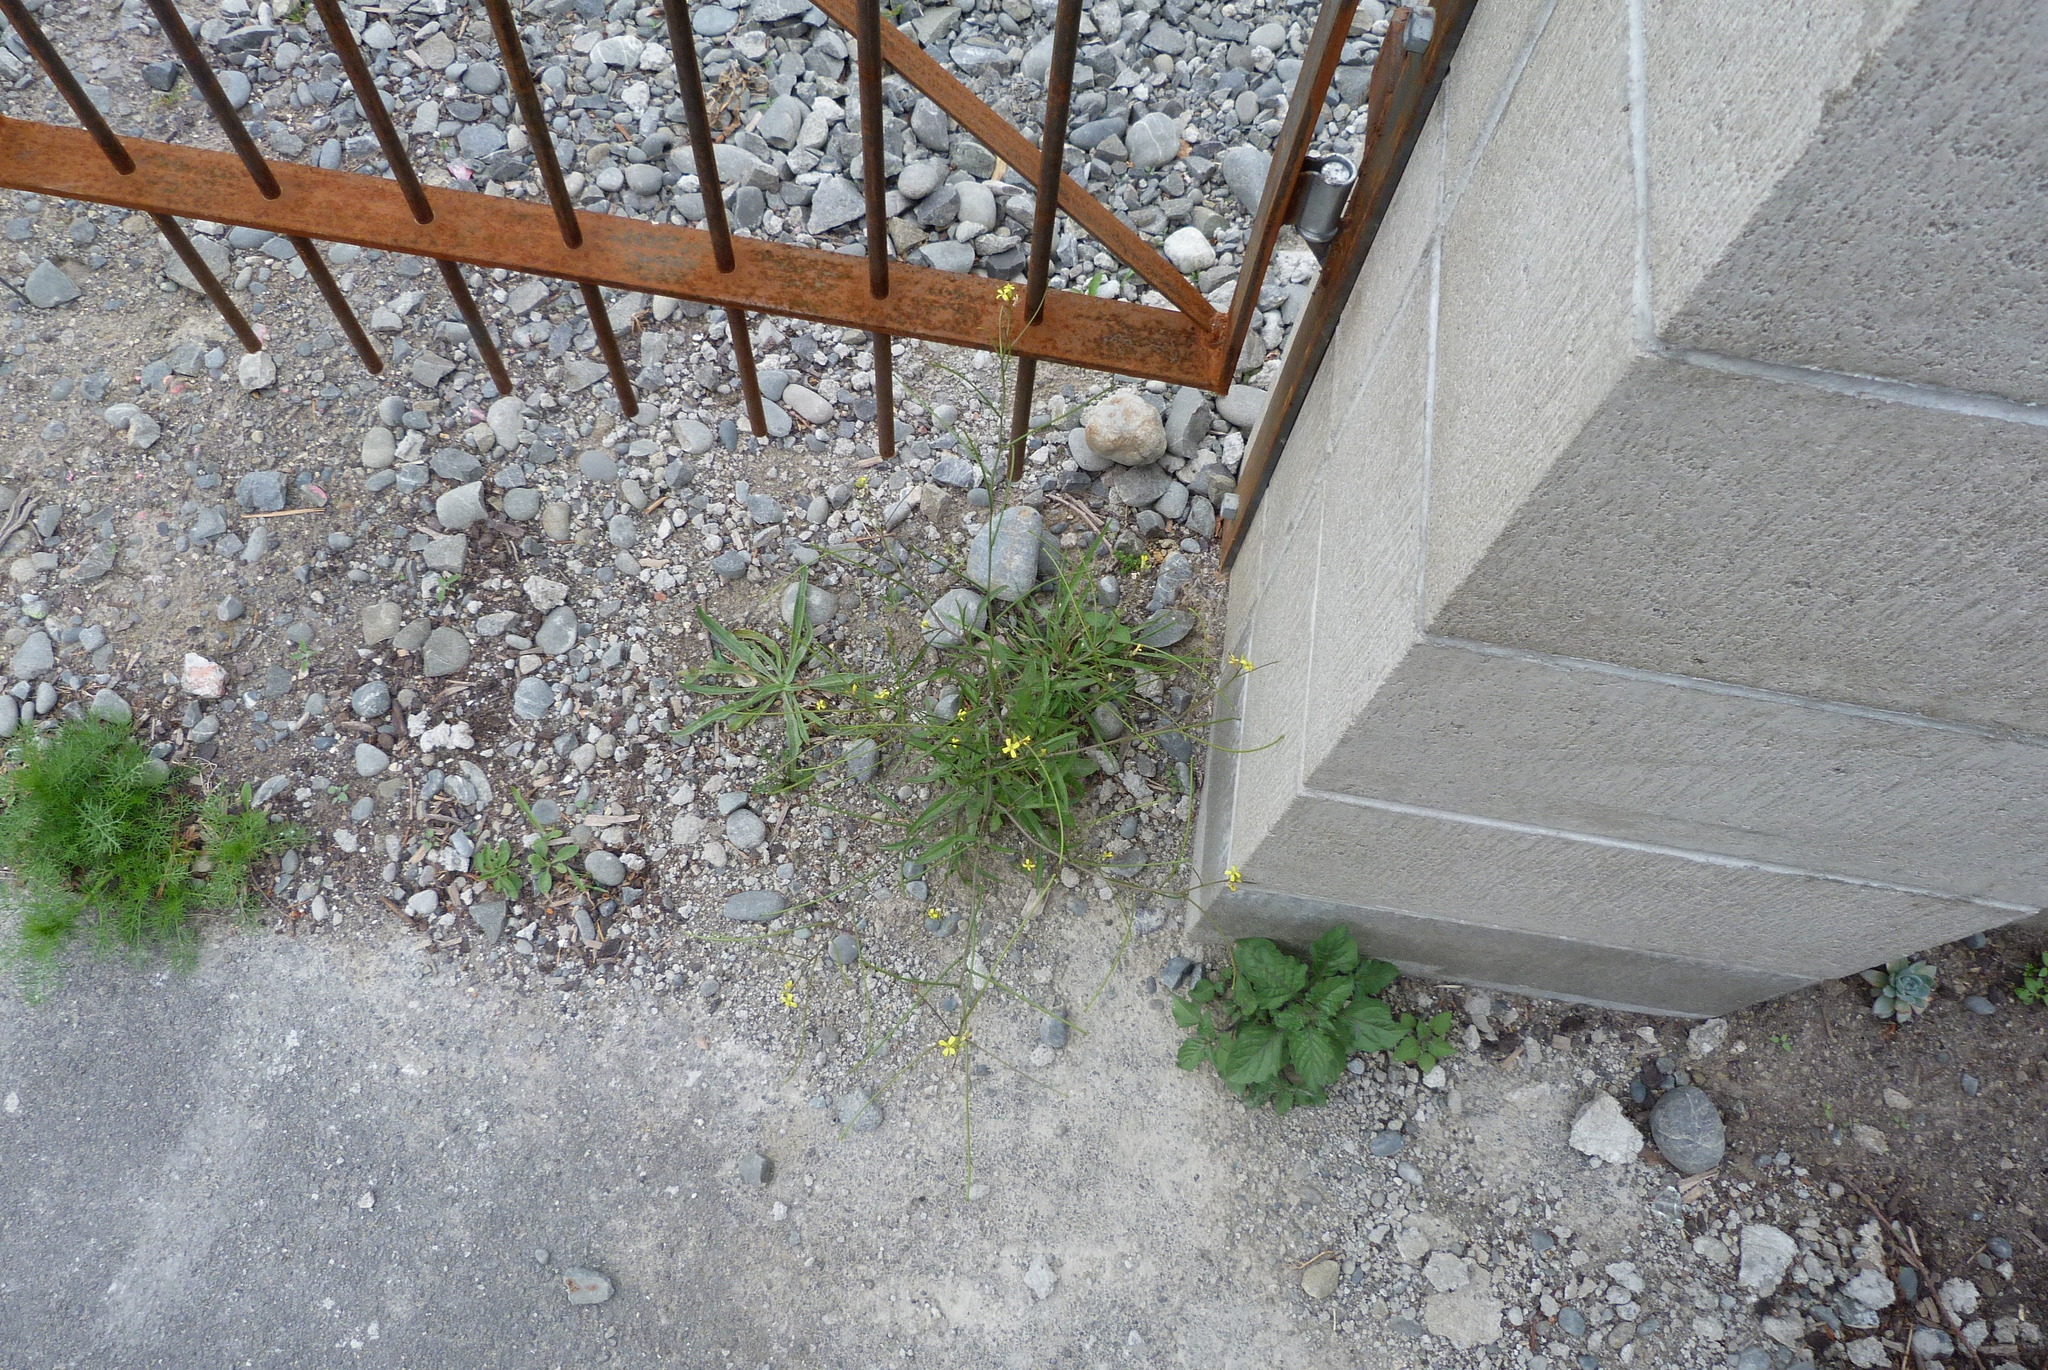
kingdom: Plantae
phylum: Tracheophyta
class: Magnoliopsida
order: Brassicales
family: Brassicaceae
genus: Sisymbrium
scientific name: Sisymbrium orientale
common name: Eastern rocket
